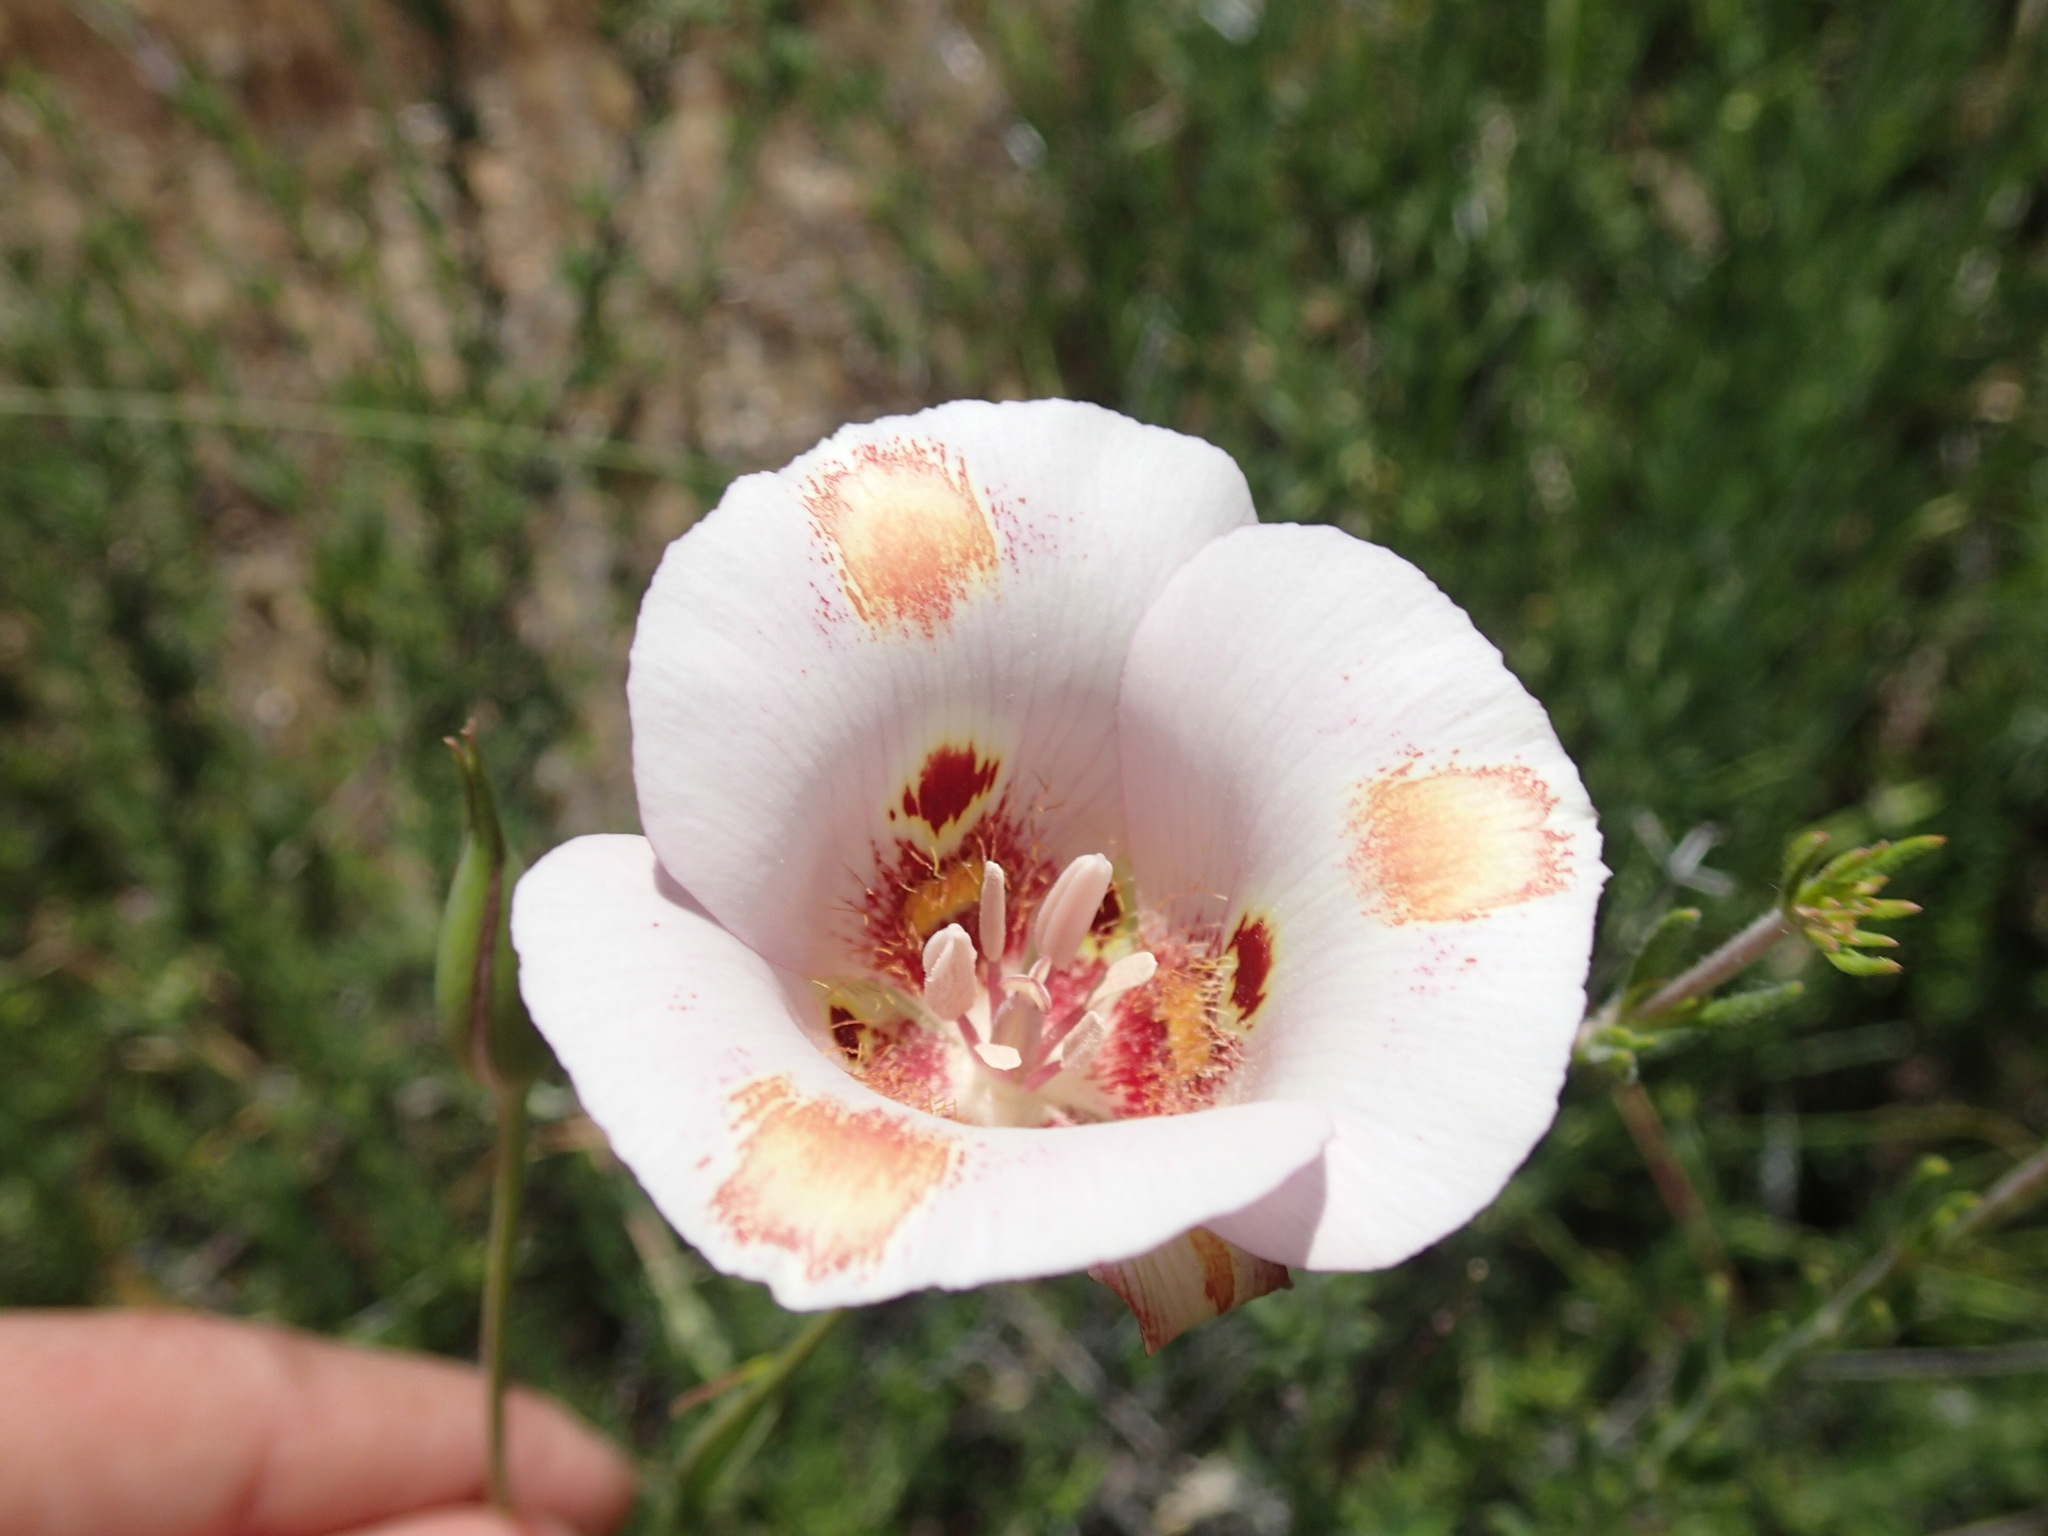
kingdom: Plantae
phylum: Tracheophyta
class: Liliopsida
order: Liliales
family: Liliaceae
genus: Calochortus
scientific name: Calochortus venustus
